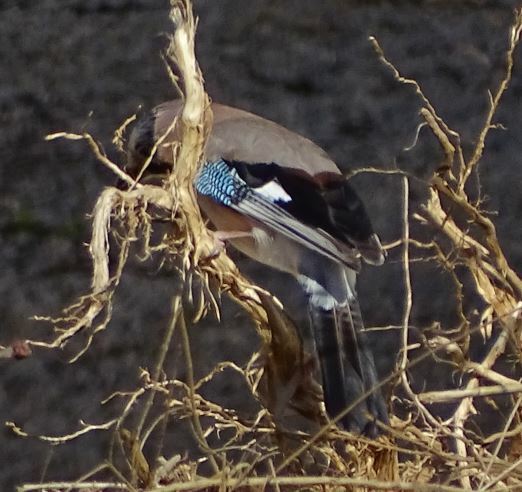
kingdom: Animalia
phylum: Chordata
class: Aves
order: Passeriformes
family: Corvidae
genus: Garrulus
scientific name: Garrulus glandarius
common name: Eurasian jay
